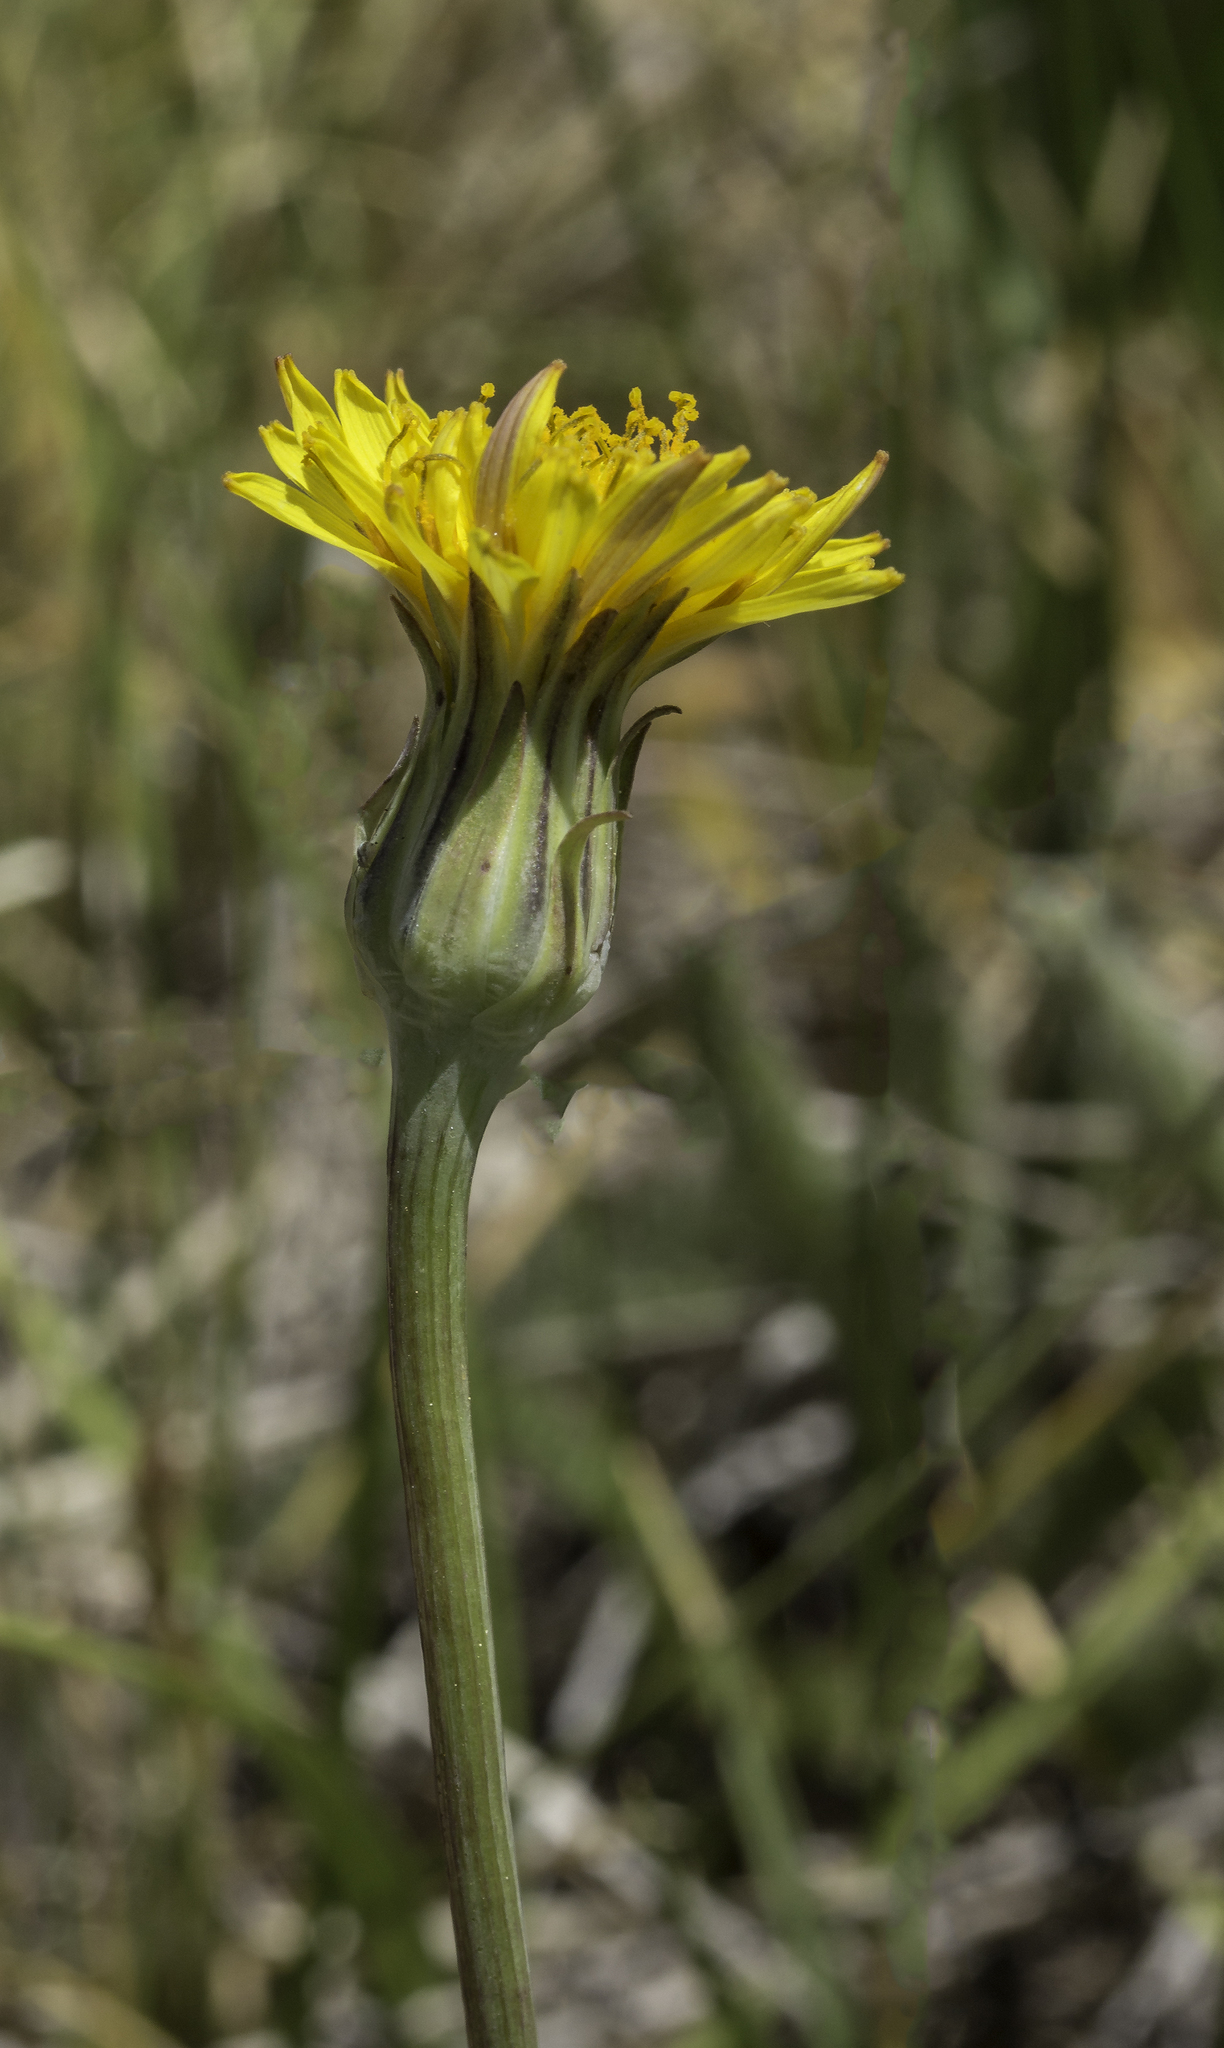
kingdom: Plantae
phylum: Tracheophyta
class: Magnoliopsida
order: Asterales
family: Asteraceae
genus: Agoseris
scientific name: Agoseris glauca
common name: Prairie agoseris
